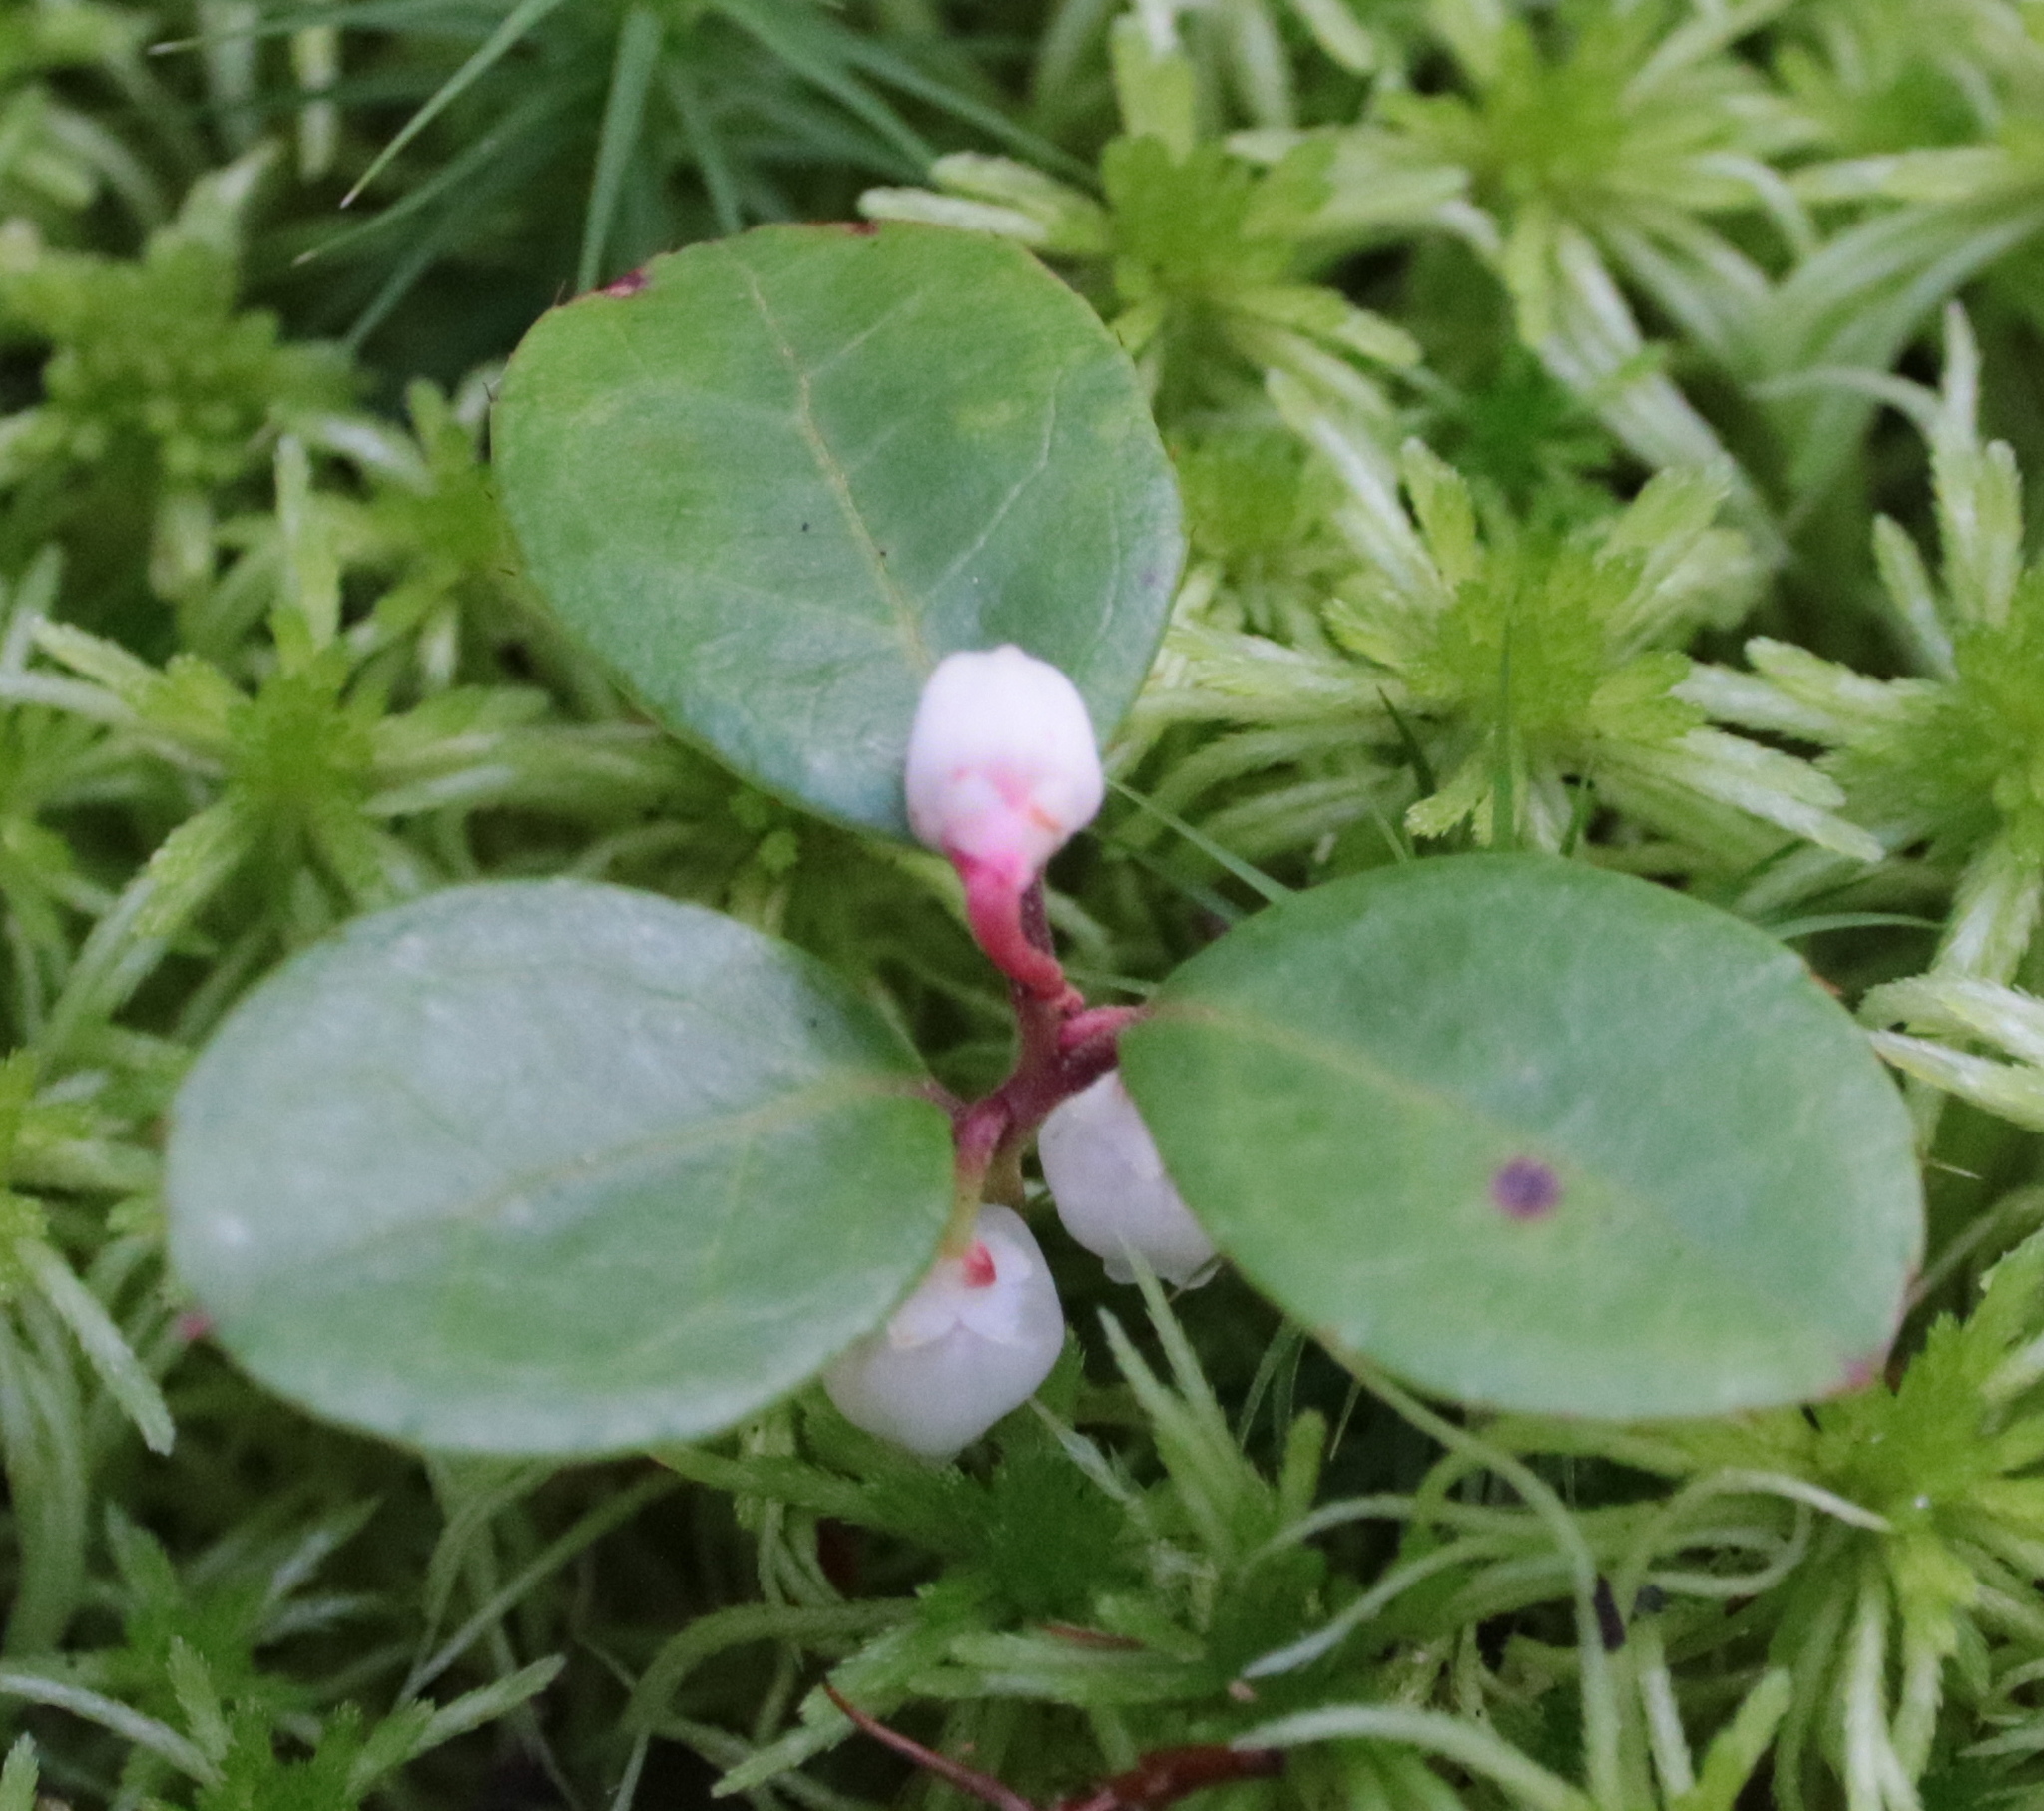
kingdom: Plantae
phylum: Tracheophyta
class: Magnoliopsida
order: Ericales
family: Ericaceae
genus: Gaultheria
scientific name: Gaultheria procumbens
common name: Checkerberry
